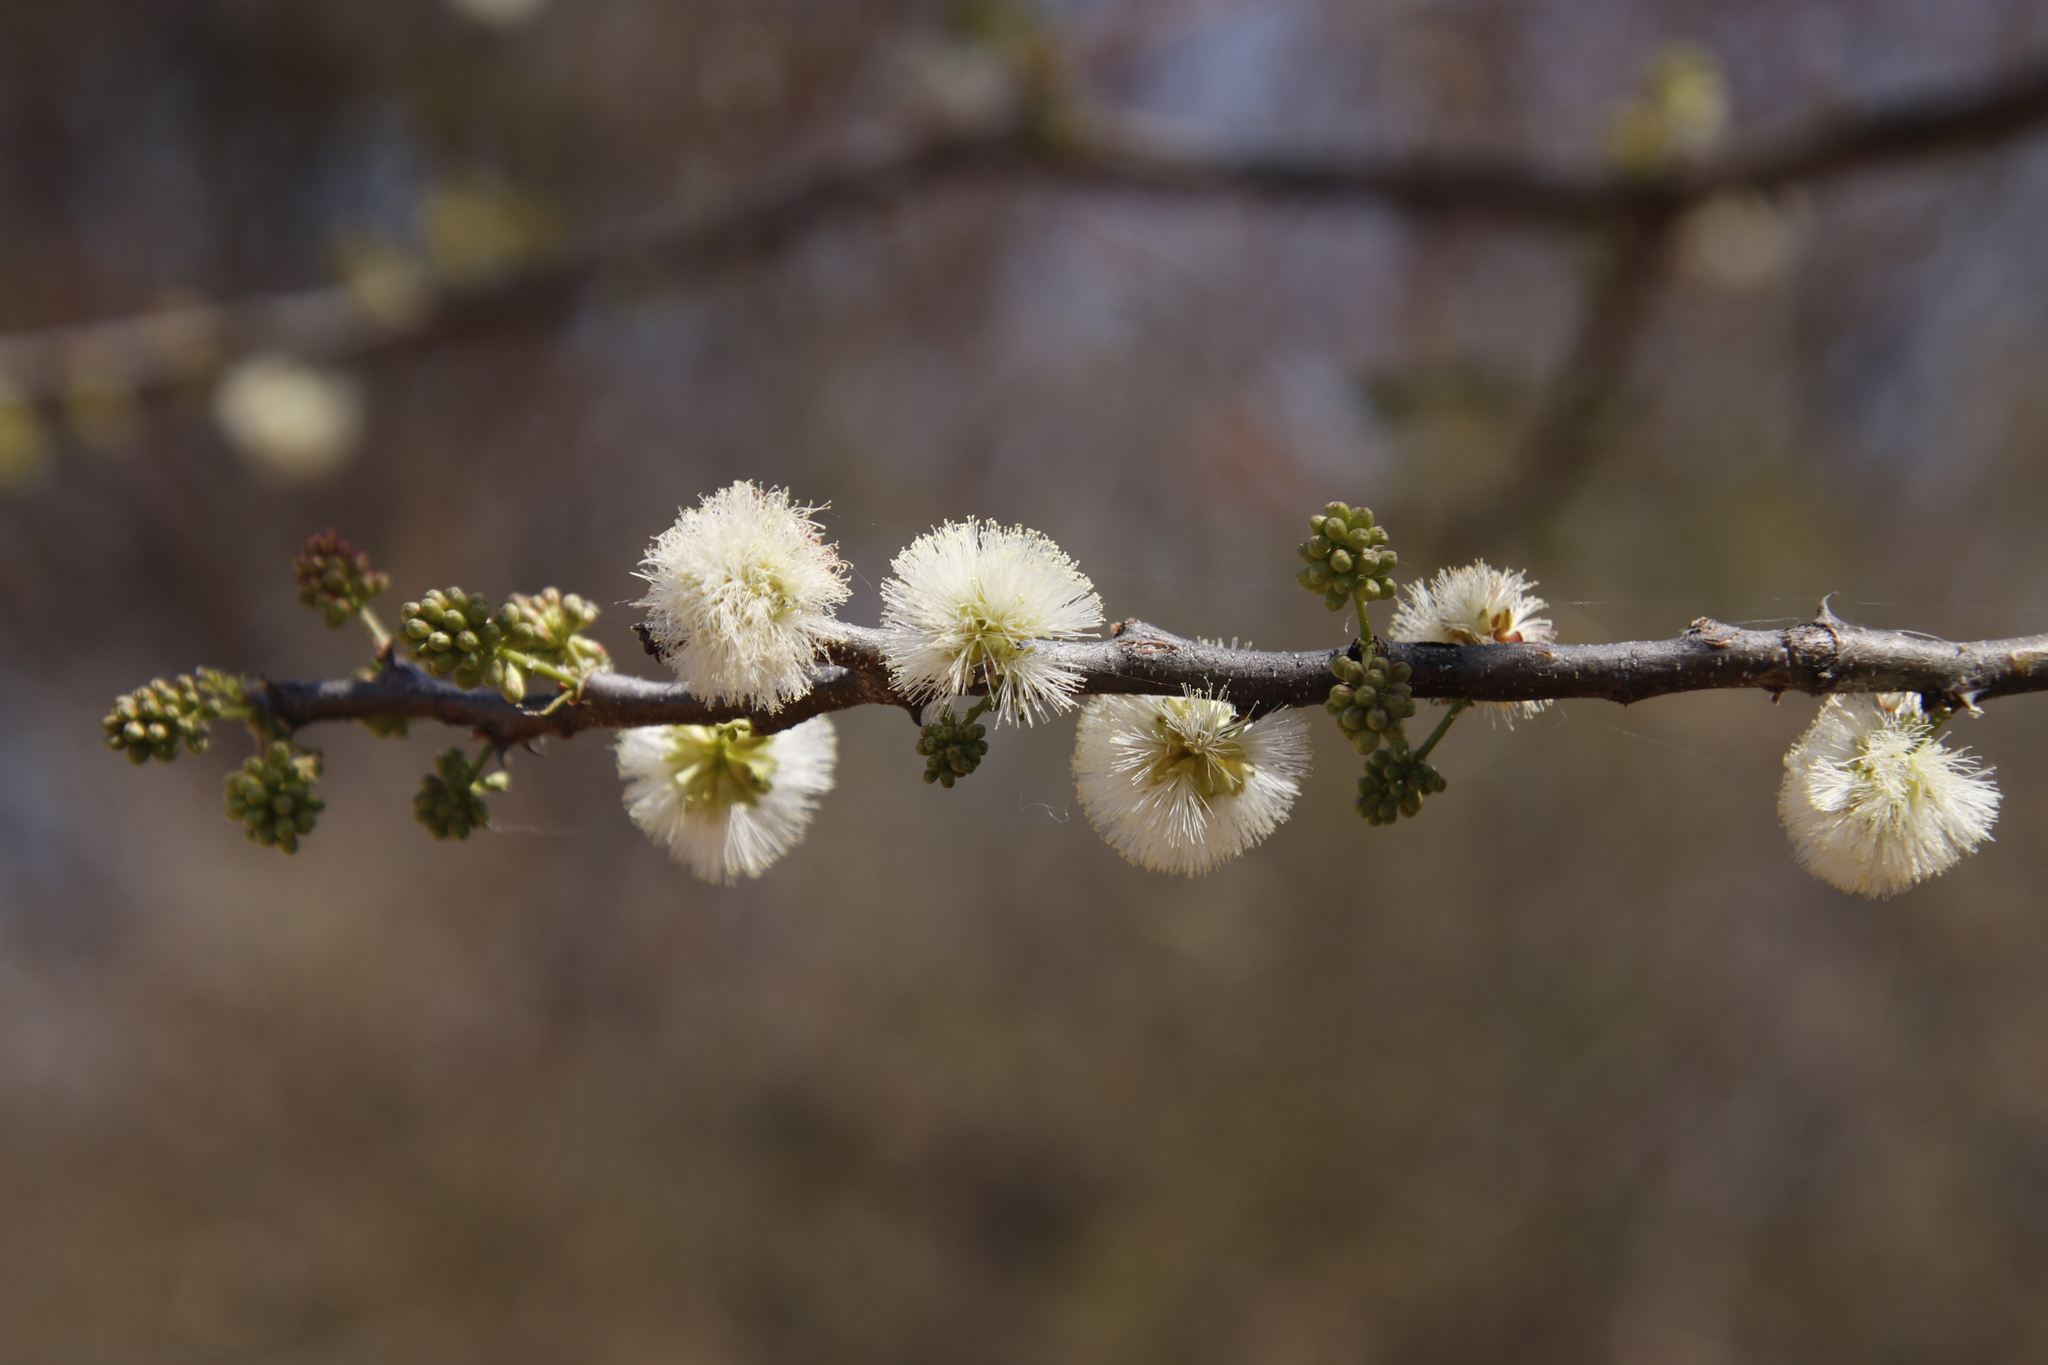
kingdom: Plantae
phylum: Tracheophyta
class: Magnoliopsida
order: Fabales
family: Fabaceae
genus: Senegalia
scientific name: Senegalia mellifera
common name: Hookthorn
